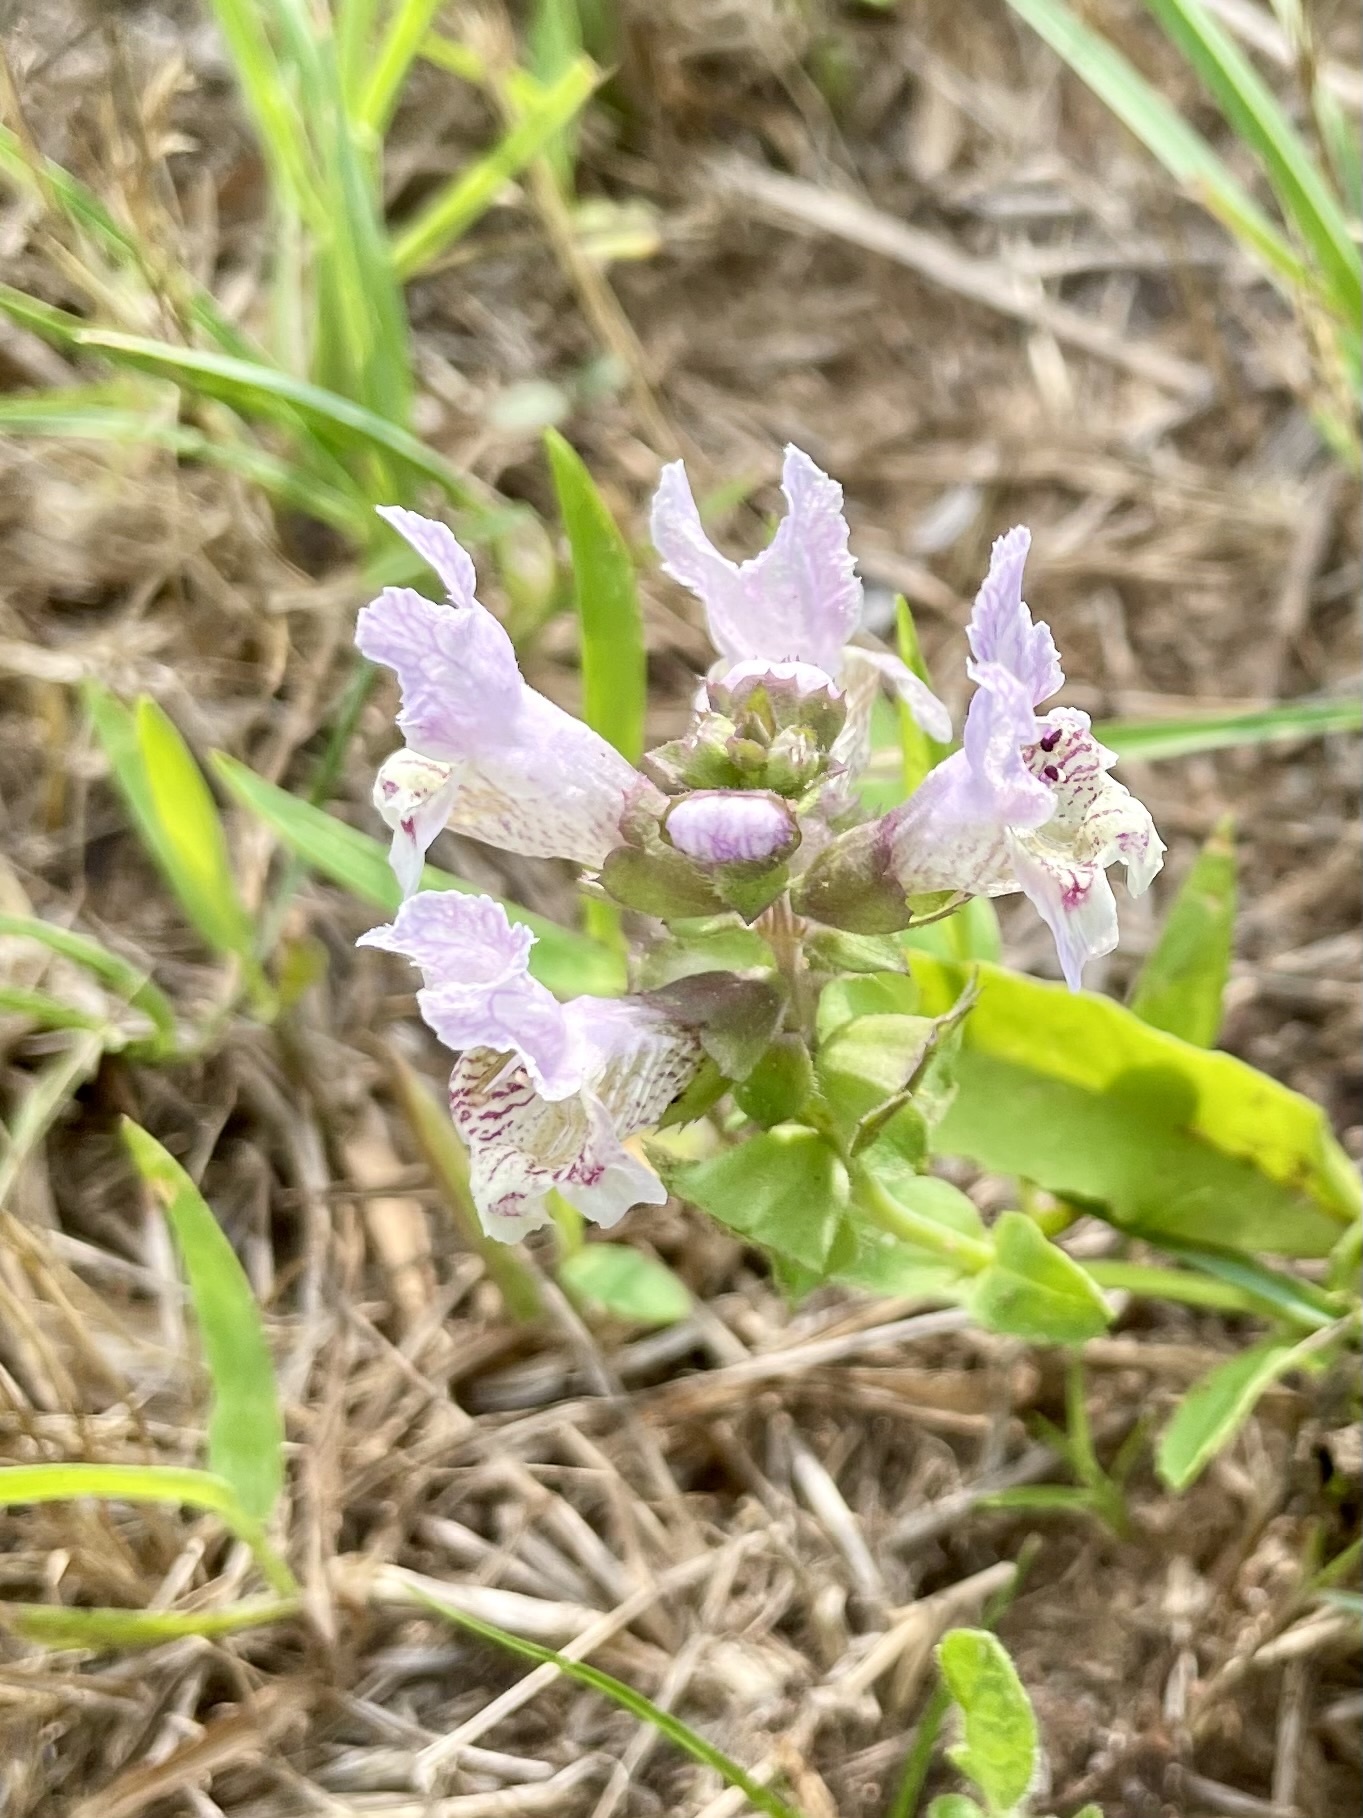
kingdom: Plantae
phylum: Tracheophyta
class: Magnoliopsida
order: Lamiales
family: Lamiaceae
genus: Brazoria
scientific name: Brazoria truncata
